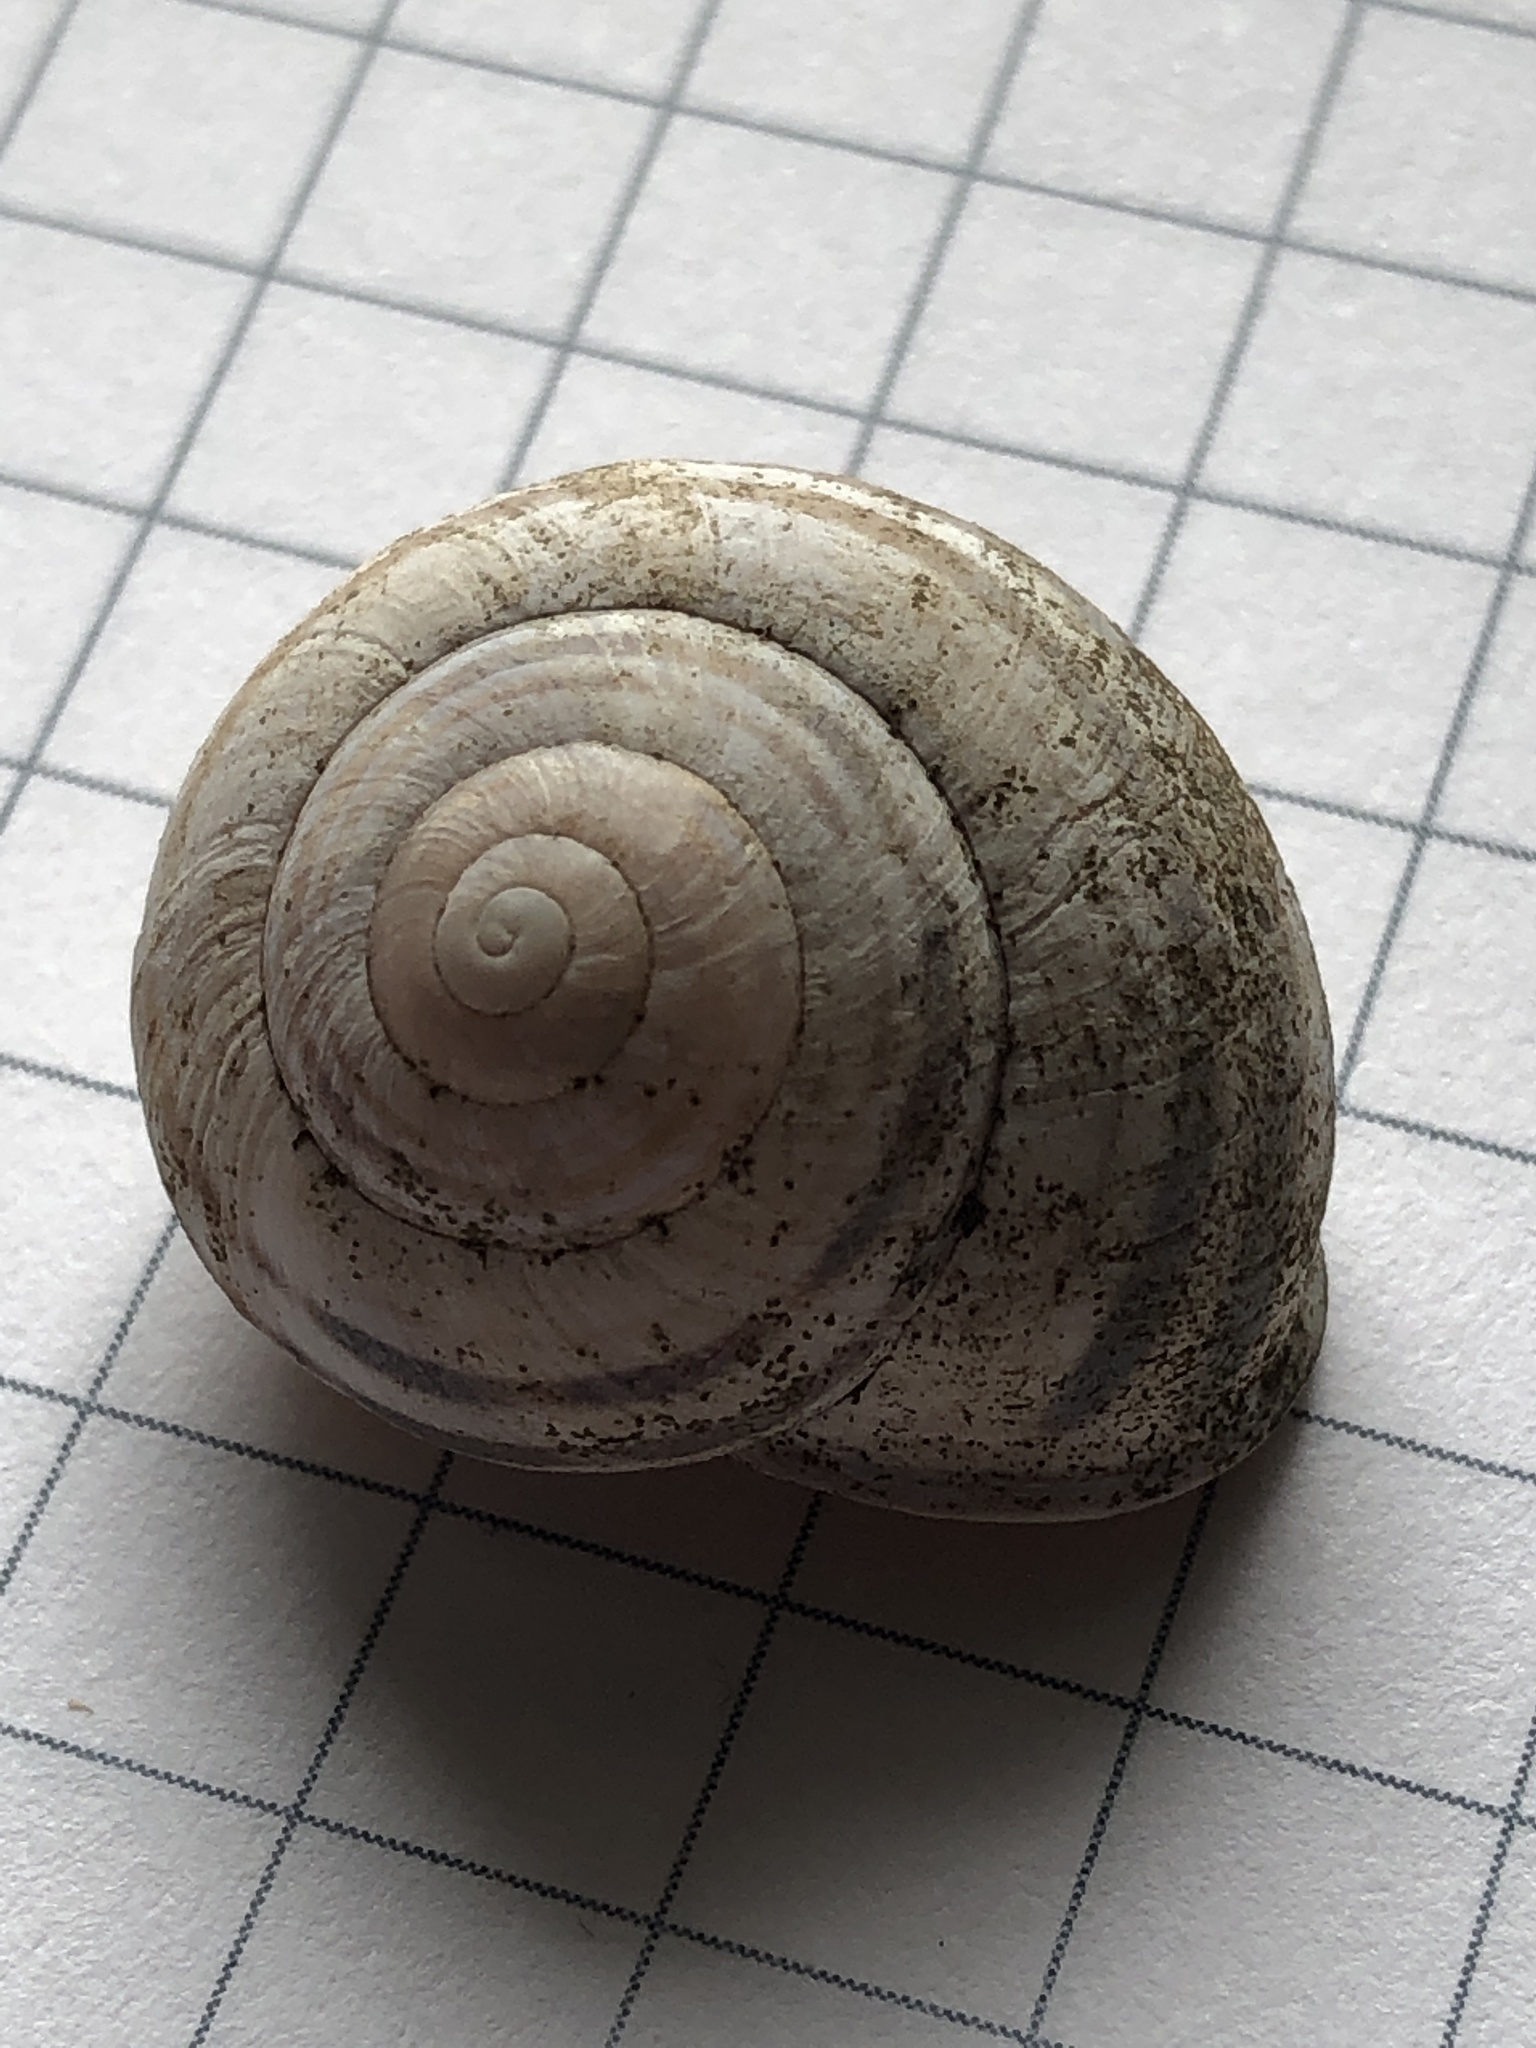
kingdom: Animalia
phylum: Mollusca
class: Gastropoda
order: Stylommatophora
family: Helicidae
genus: Cepaea
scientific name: Cepaea nemoralis
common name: Grovesnail
